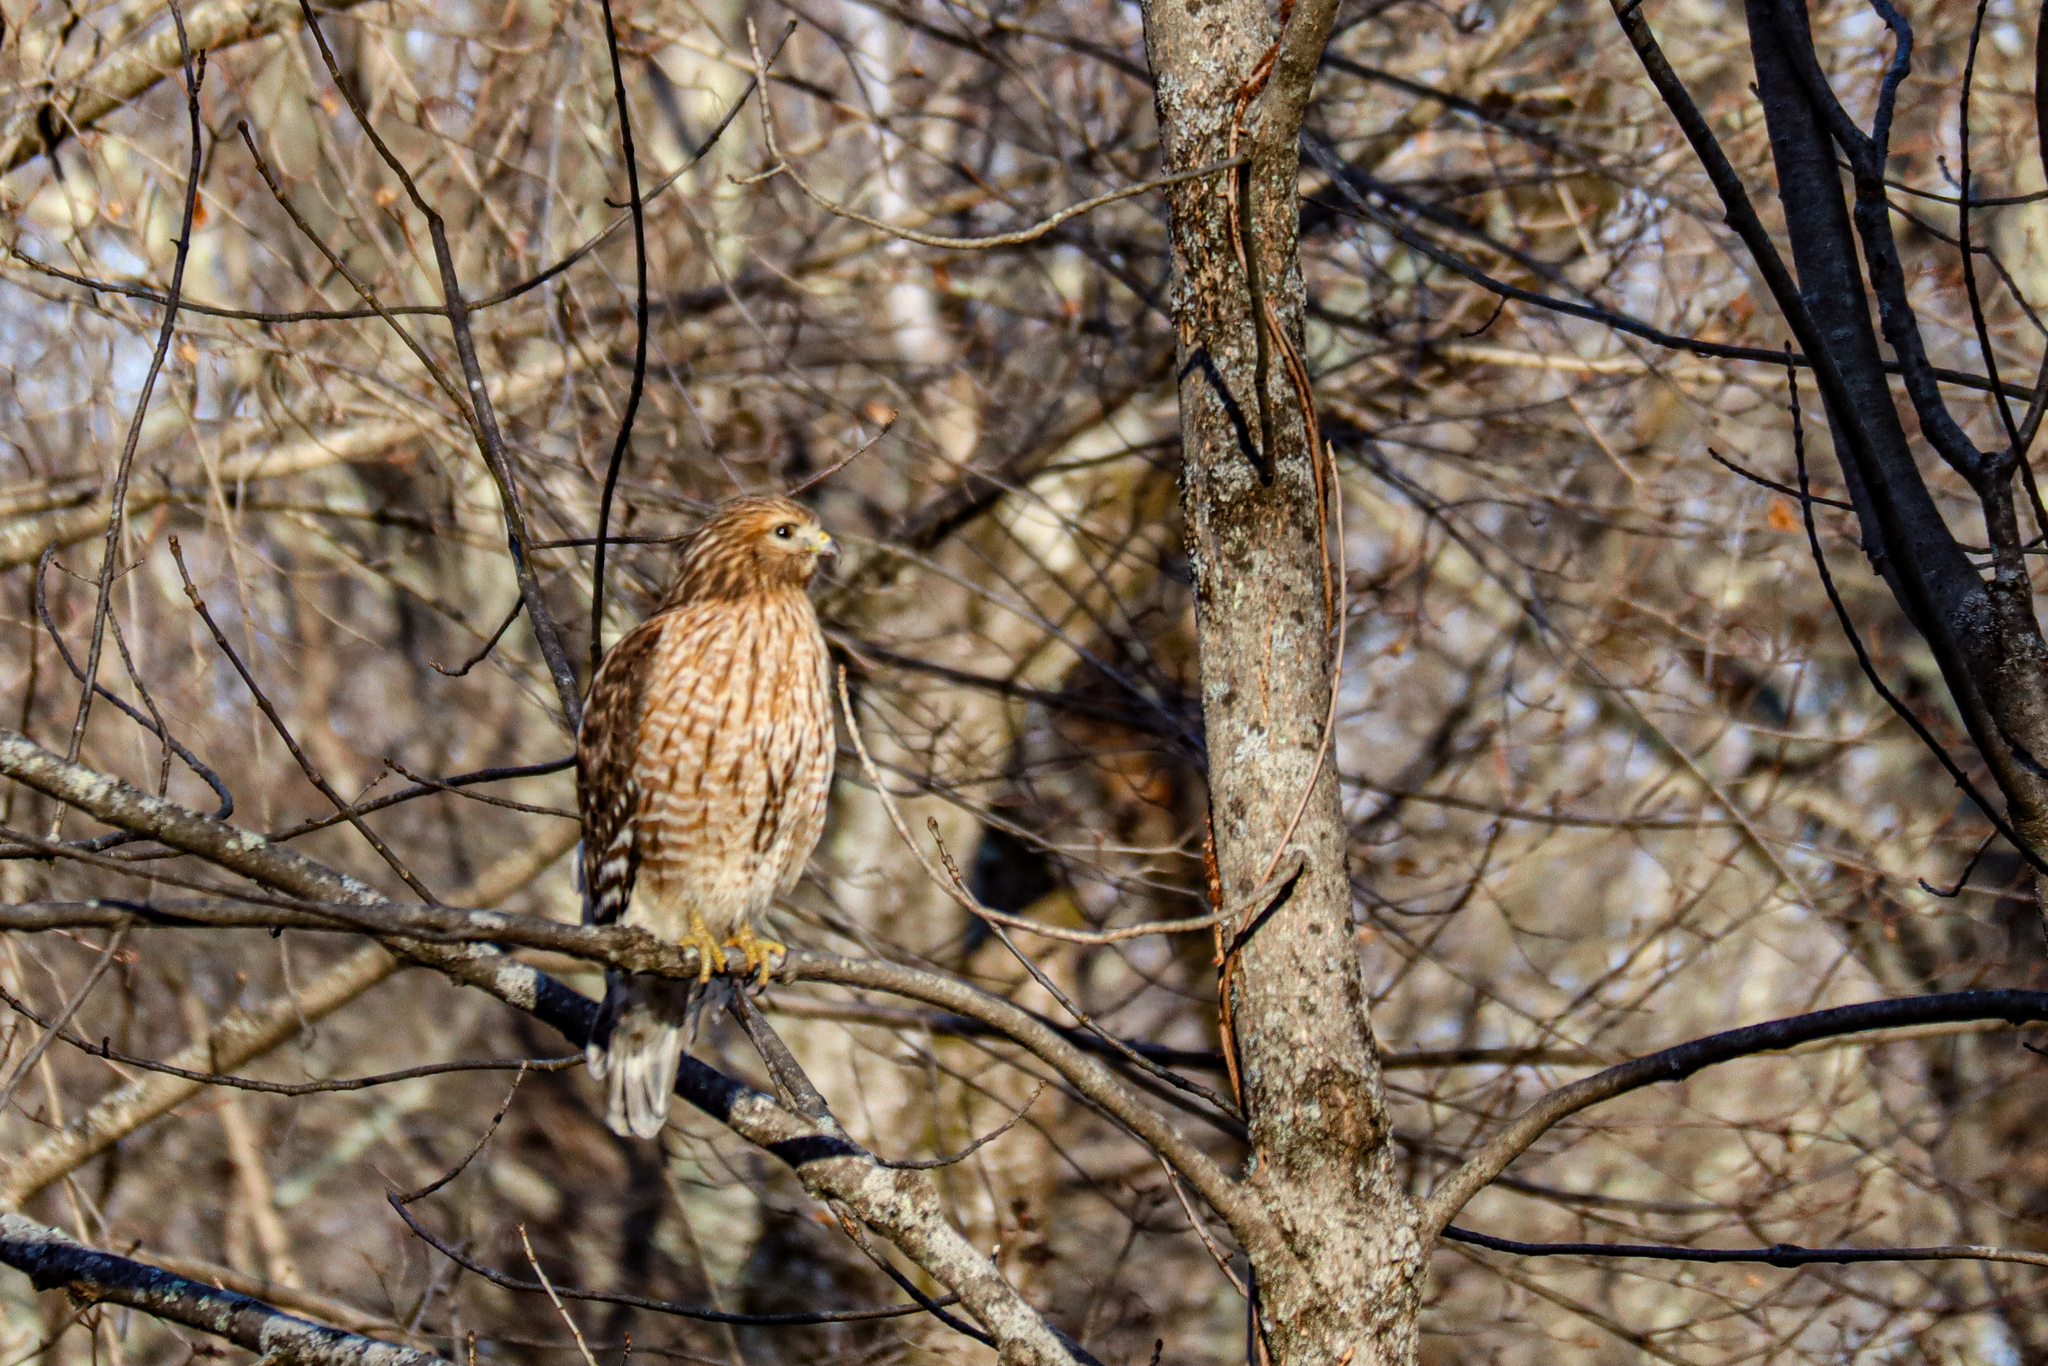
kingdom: Animalia
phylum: Chordata
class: Aves
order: Accipitriformes
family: Accipitridae
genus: Buteo
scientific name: Buteo lineatus
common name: Red-shouldered hawk
